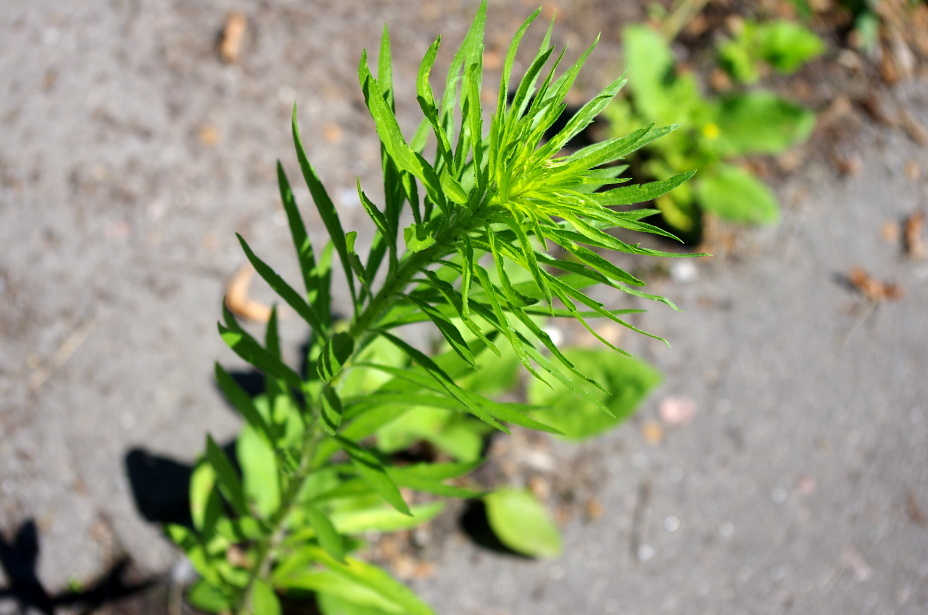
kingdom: Plantae
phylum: Tracheophyta
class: Magnoliopsida
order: Asterales
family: Asteraceae
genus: Erigeron
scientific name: Erigeron canadensis
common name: Canadian fleabane
